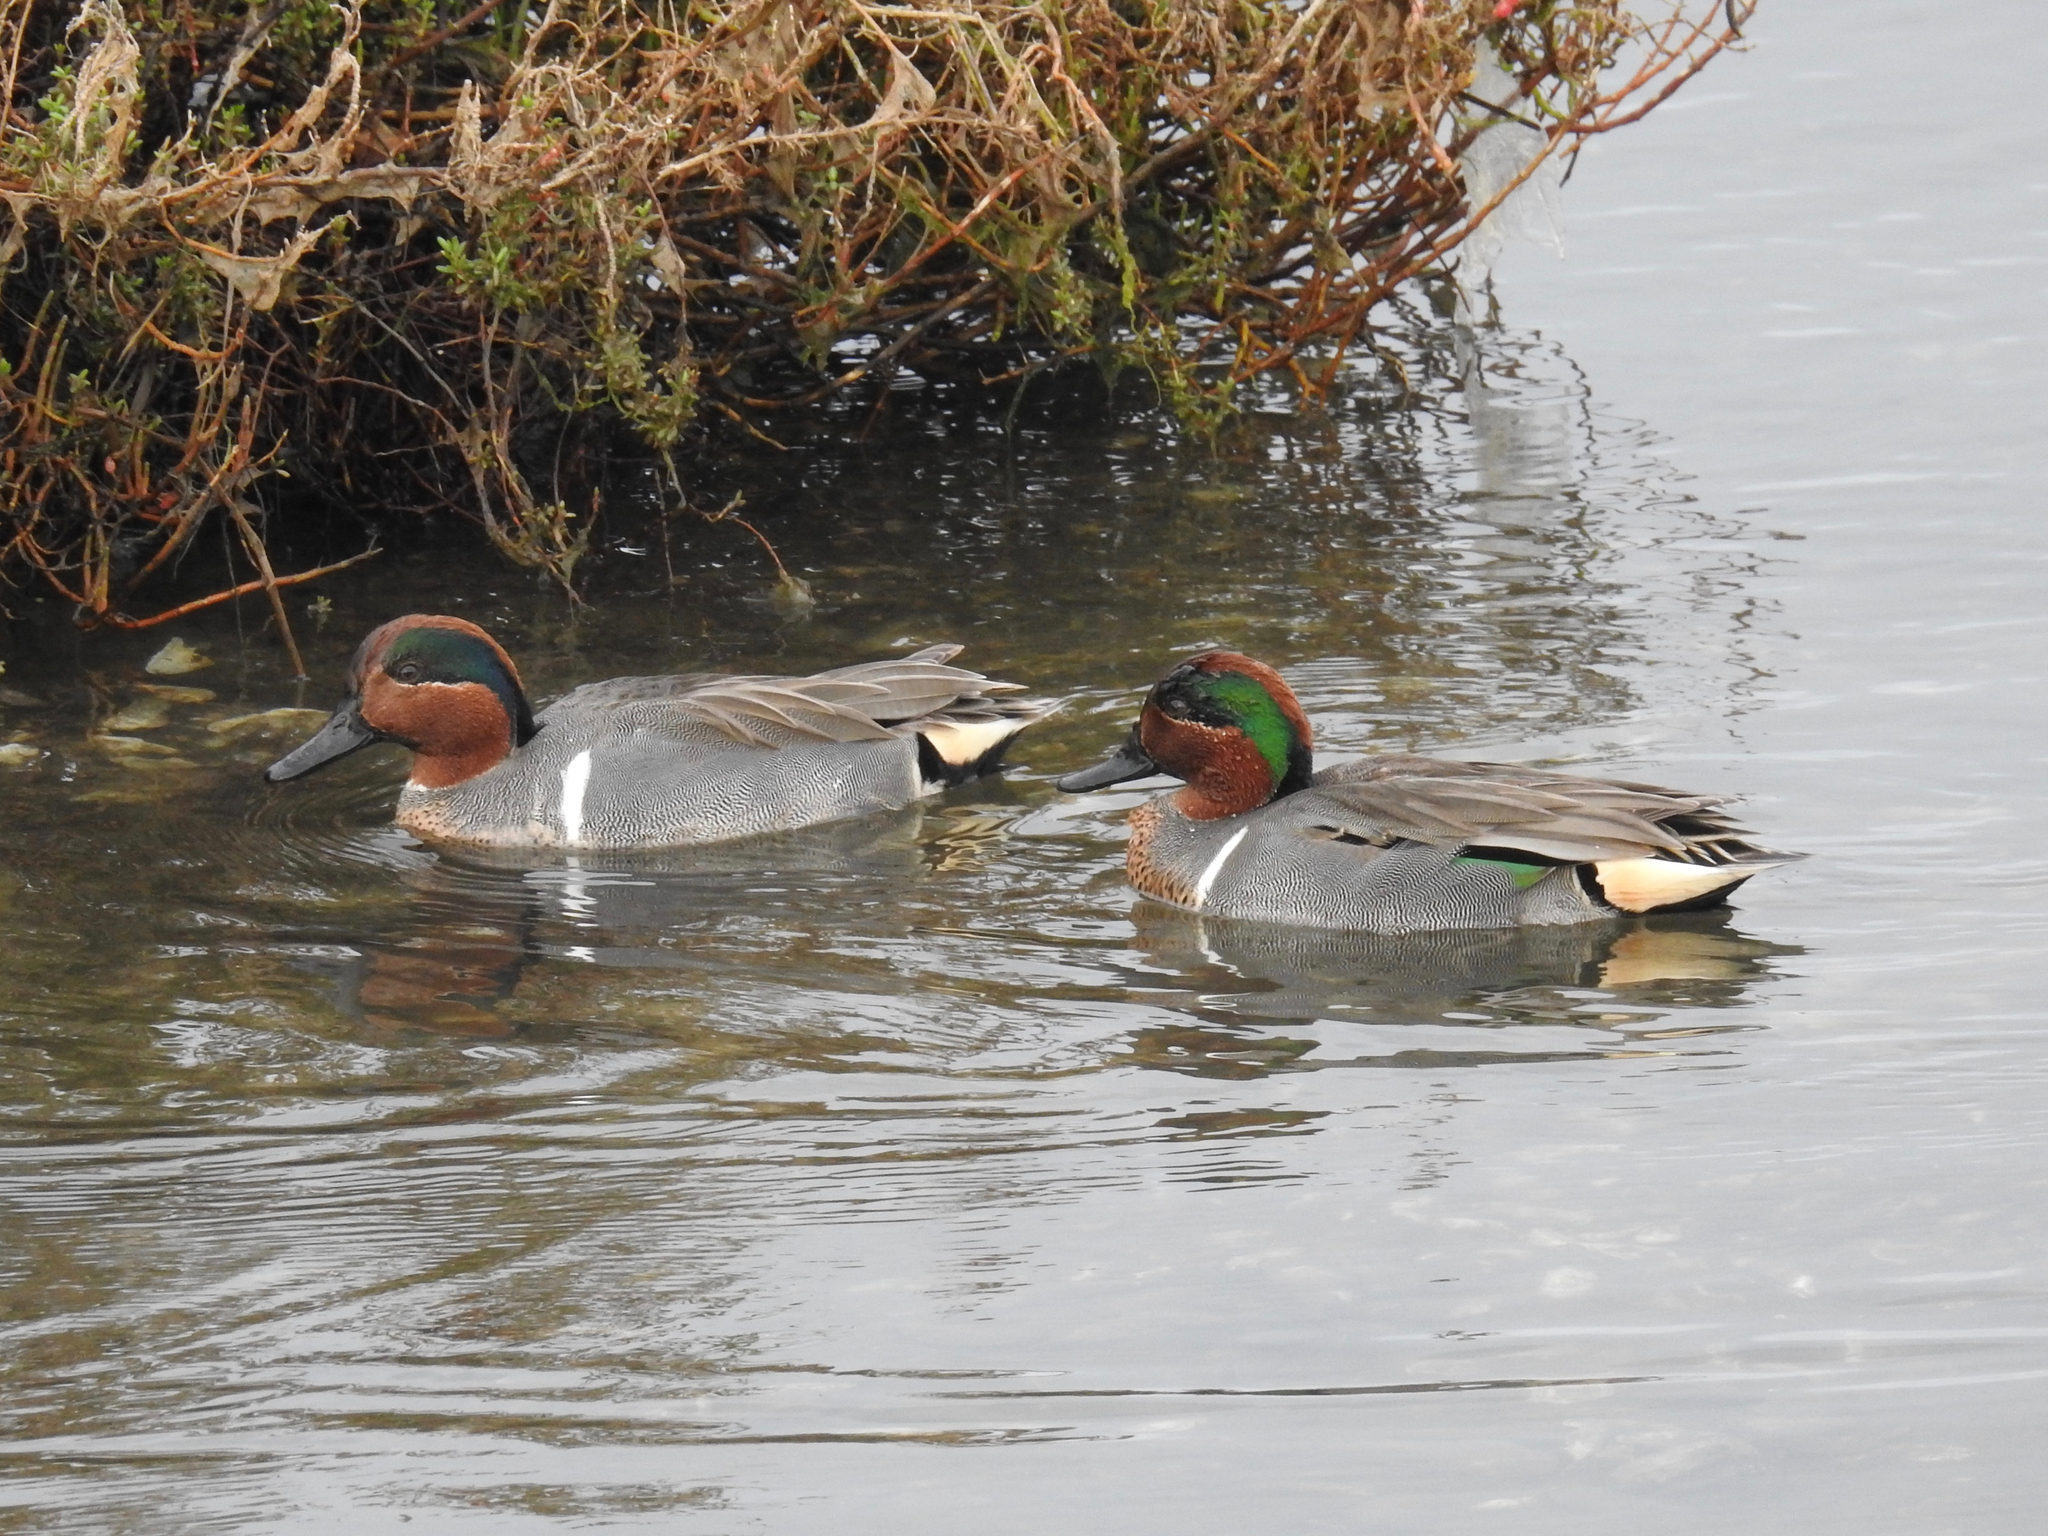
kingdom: Animalia
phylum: Chordata
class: Aves
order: Anseriformes
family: Anatidae
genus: Anas
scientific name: Anas crecca
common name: Eurasian teal
